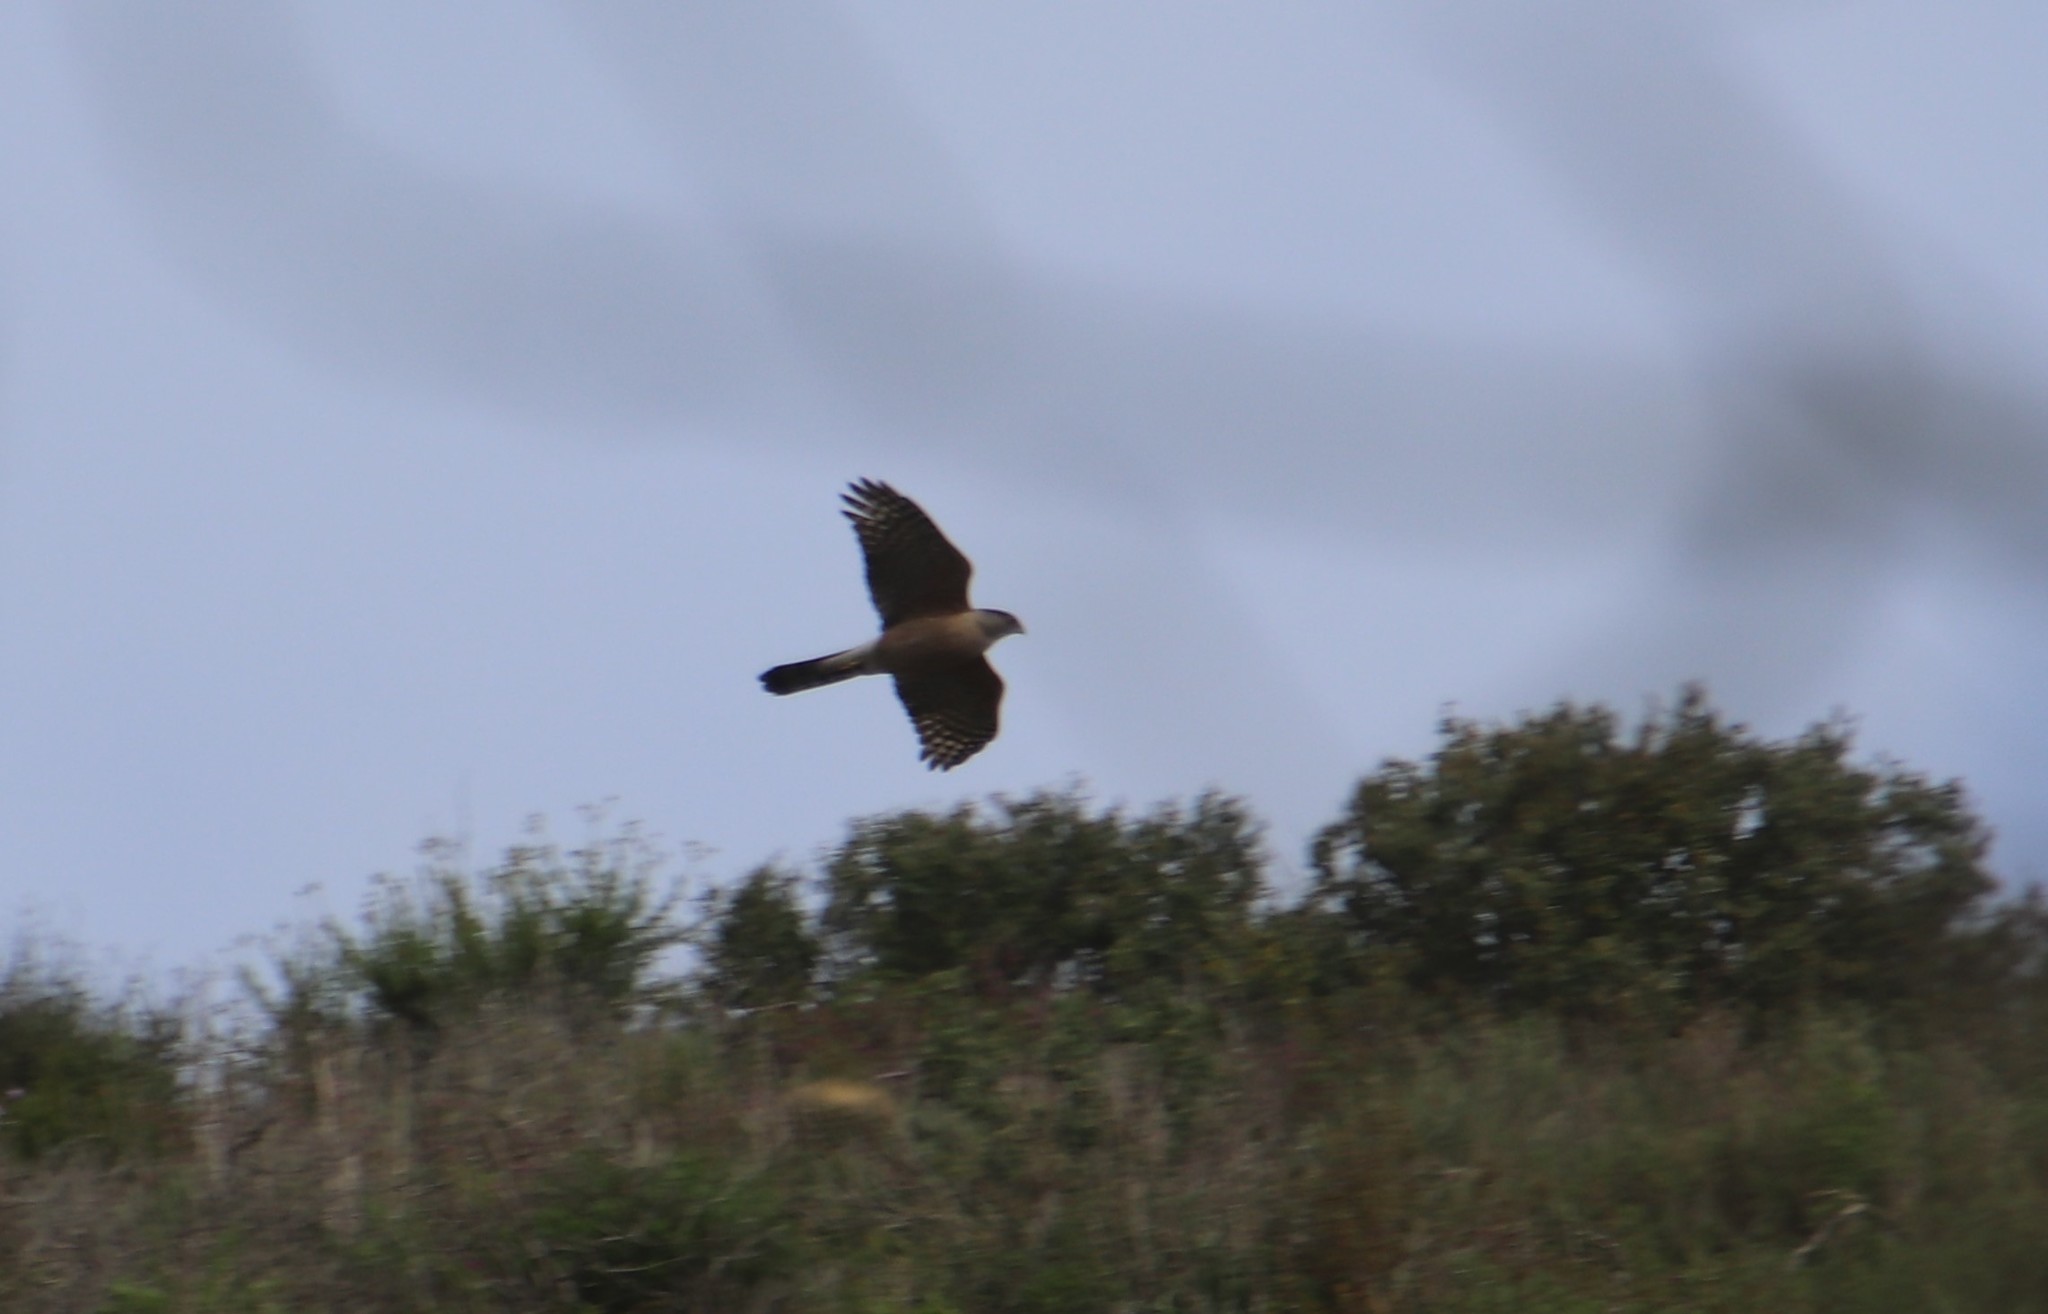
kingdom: Animalia
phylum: Chordata
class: Aves
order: Accipitriformes
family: Accipitridae
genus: Circus
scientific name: Circus cyaneus
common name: Hen harrier
